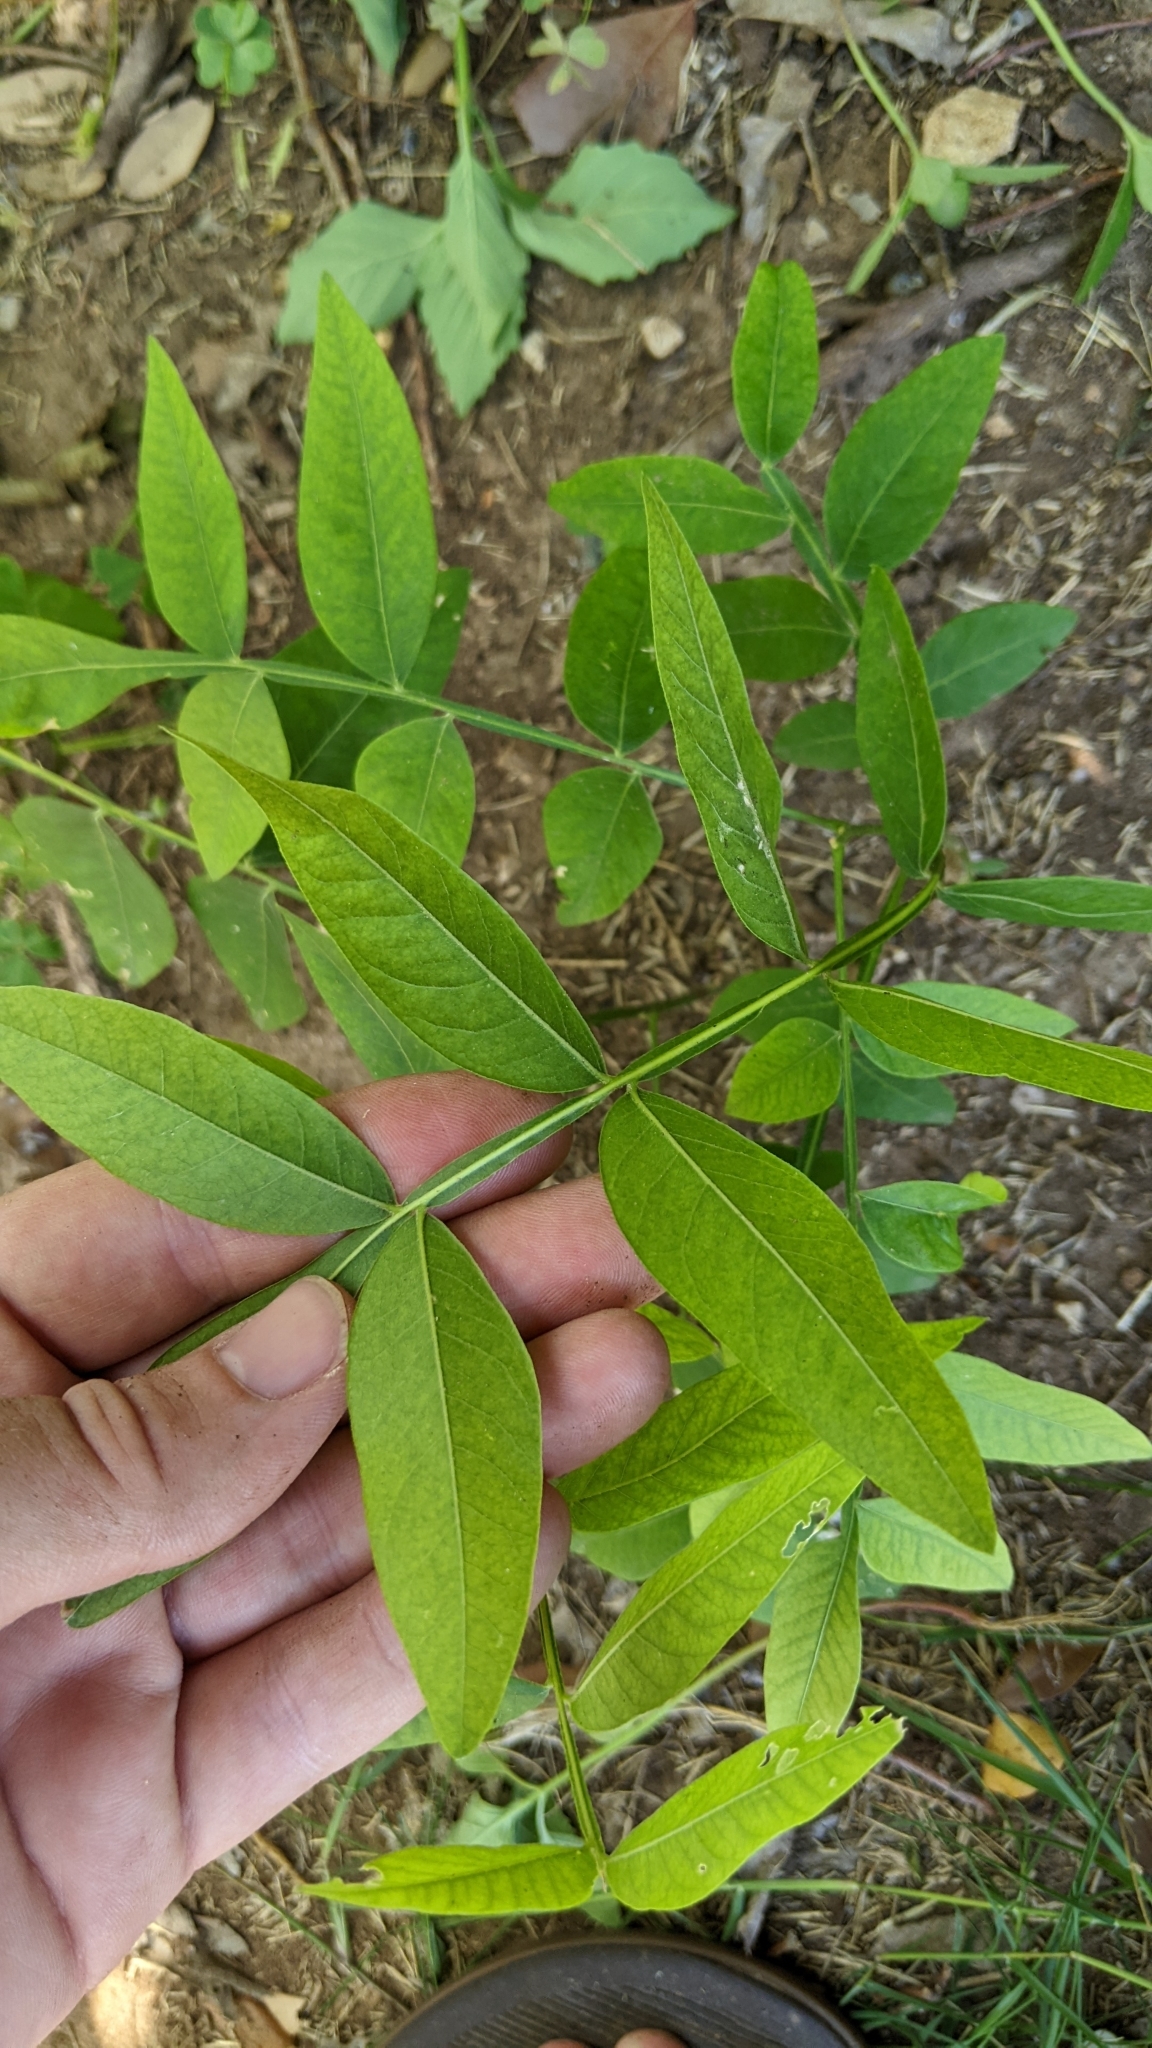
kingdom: Plantae
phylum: Tracheophyta
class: Magnoliopsida
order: Sapindales
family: Sapindaceae
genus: Sapindus
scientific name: Sapindus drummondii
